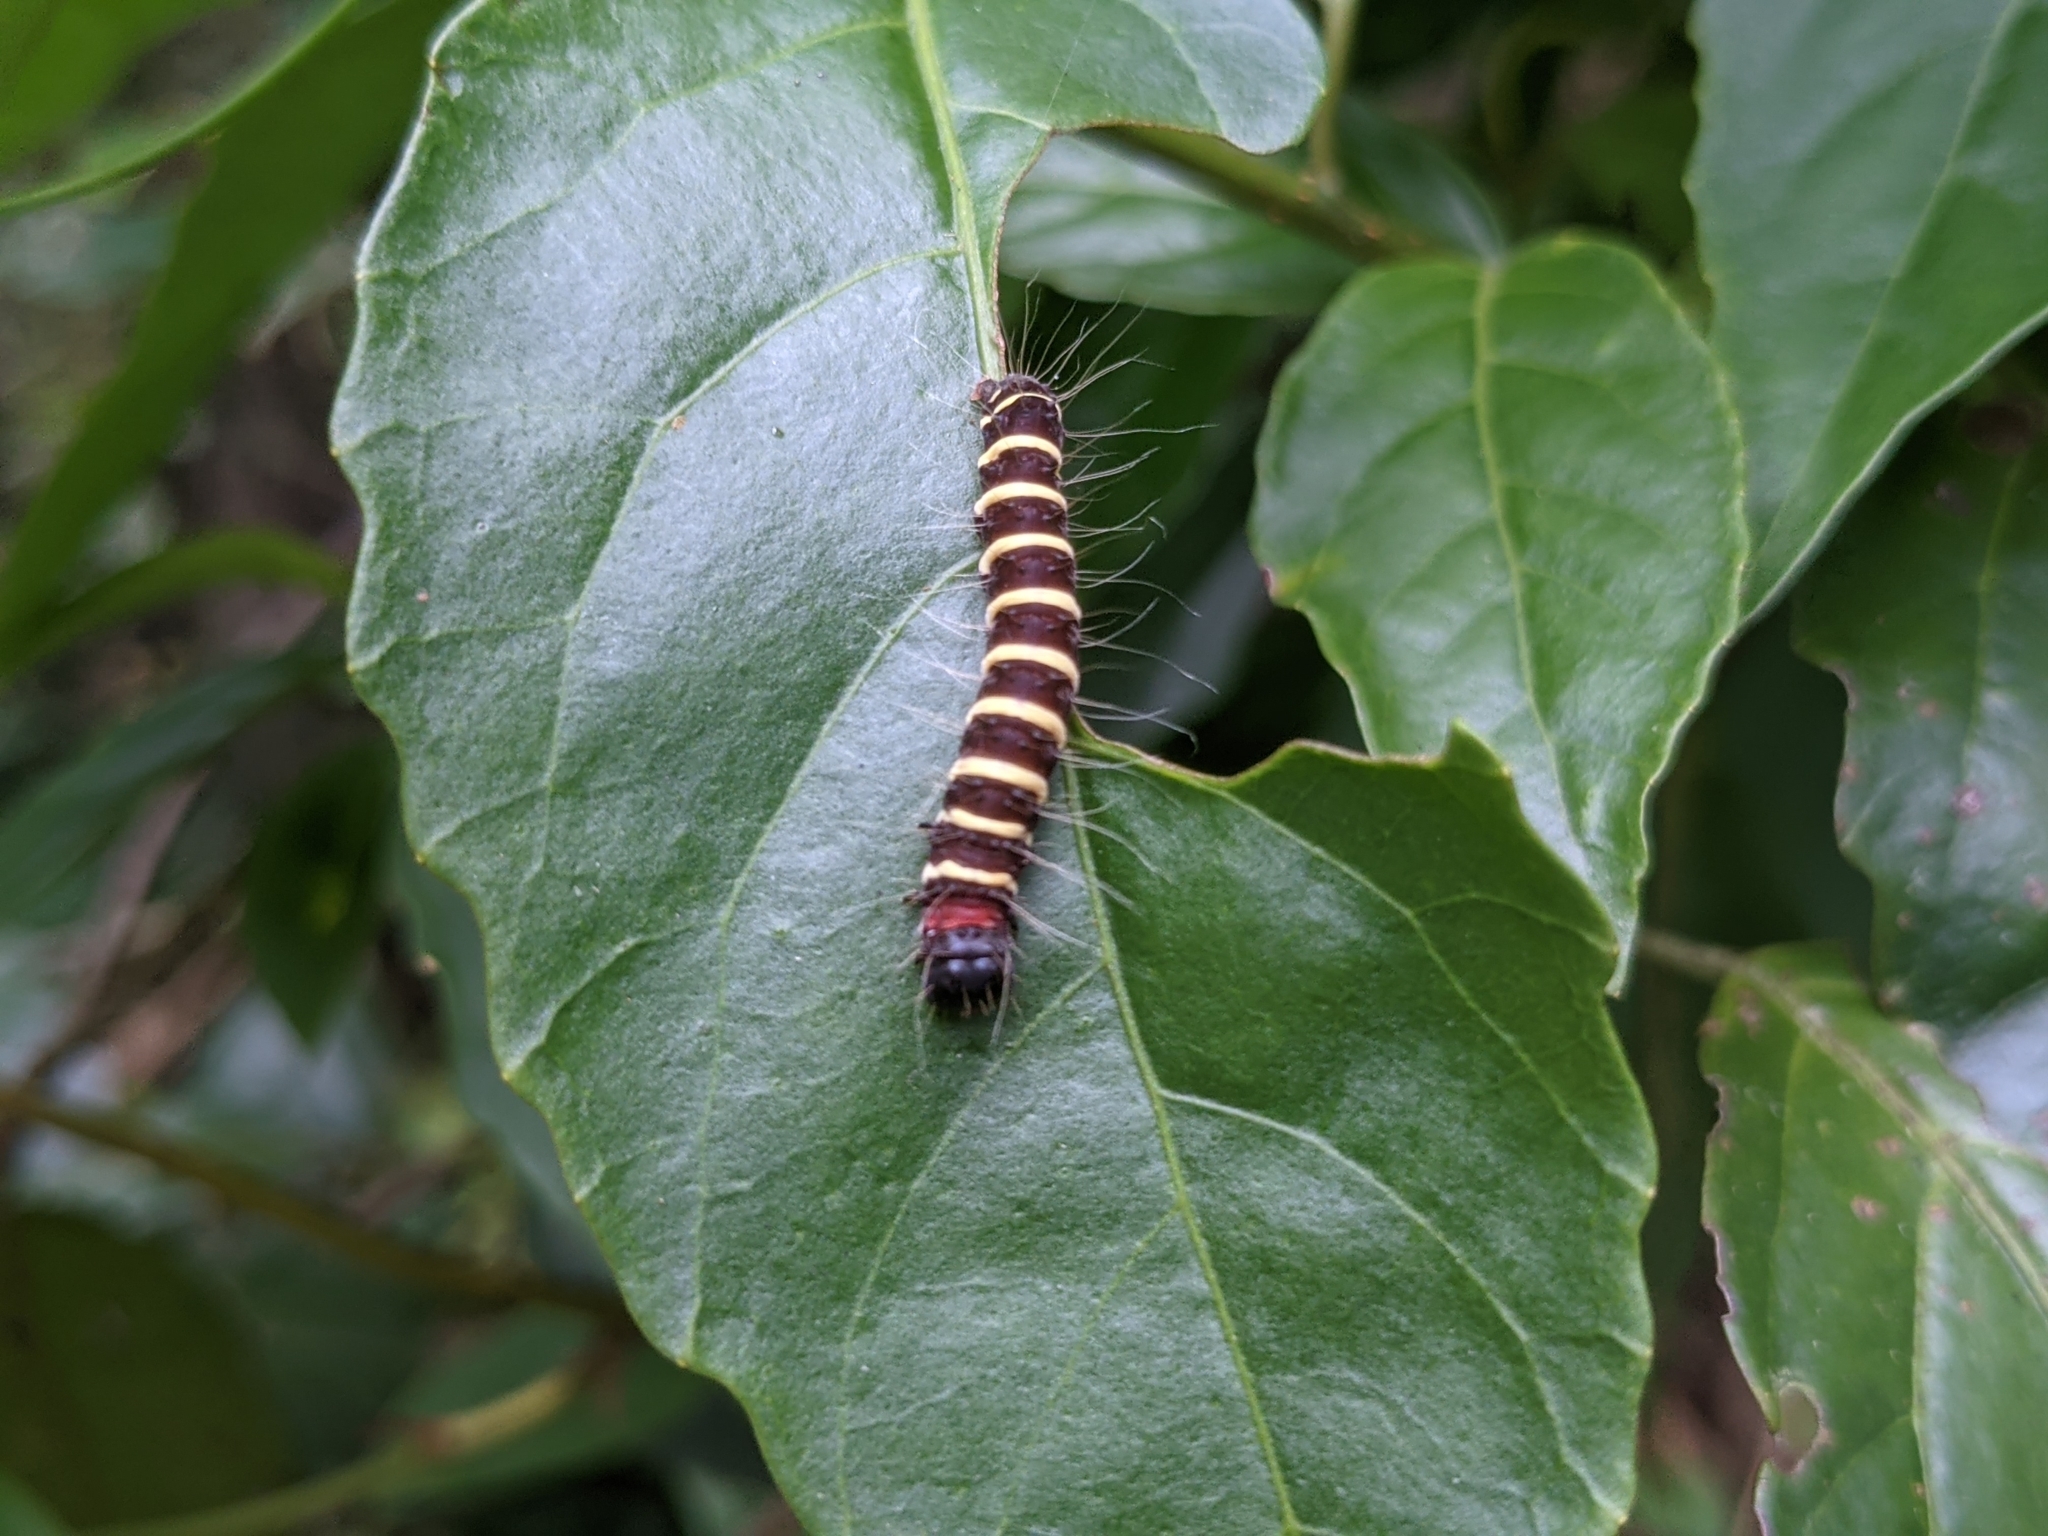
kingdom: Animalia
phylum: Arthropoda
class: Insecta
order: Lepidoptera
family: Erebidae
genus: Asota
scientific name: Asota plana
